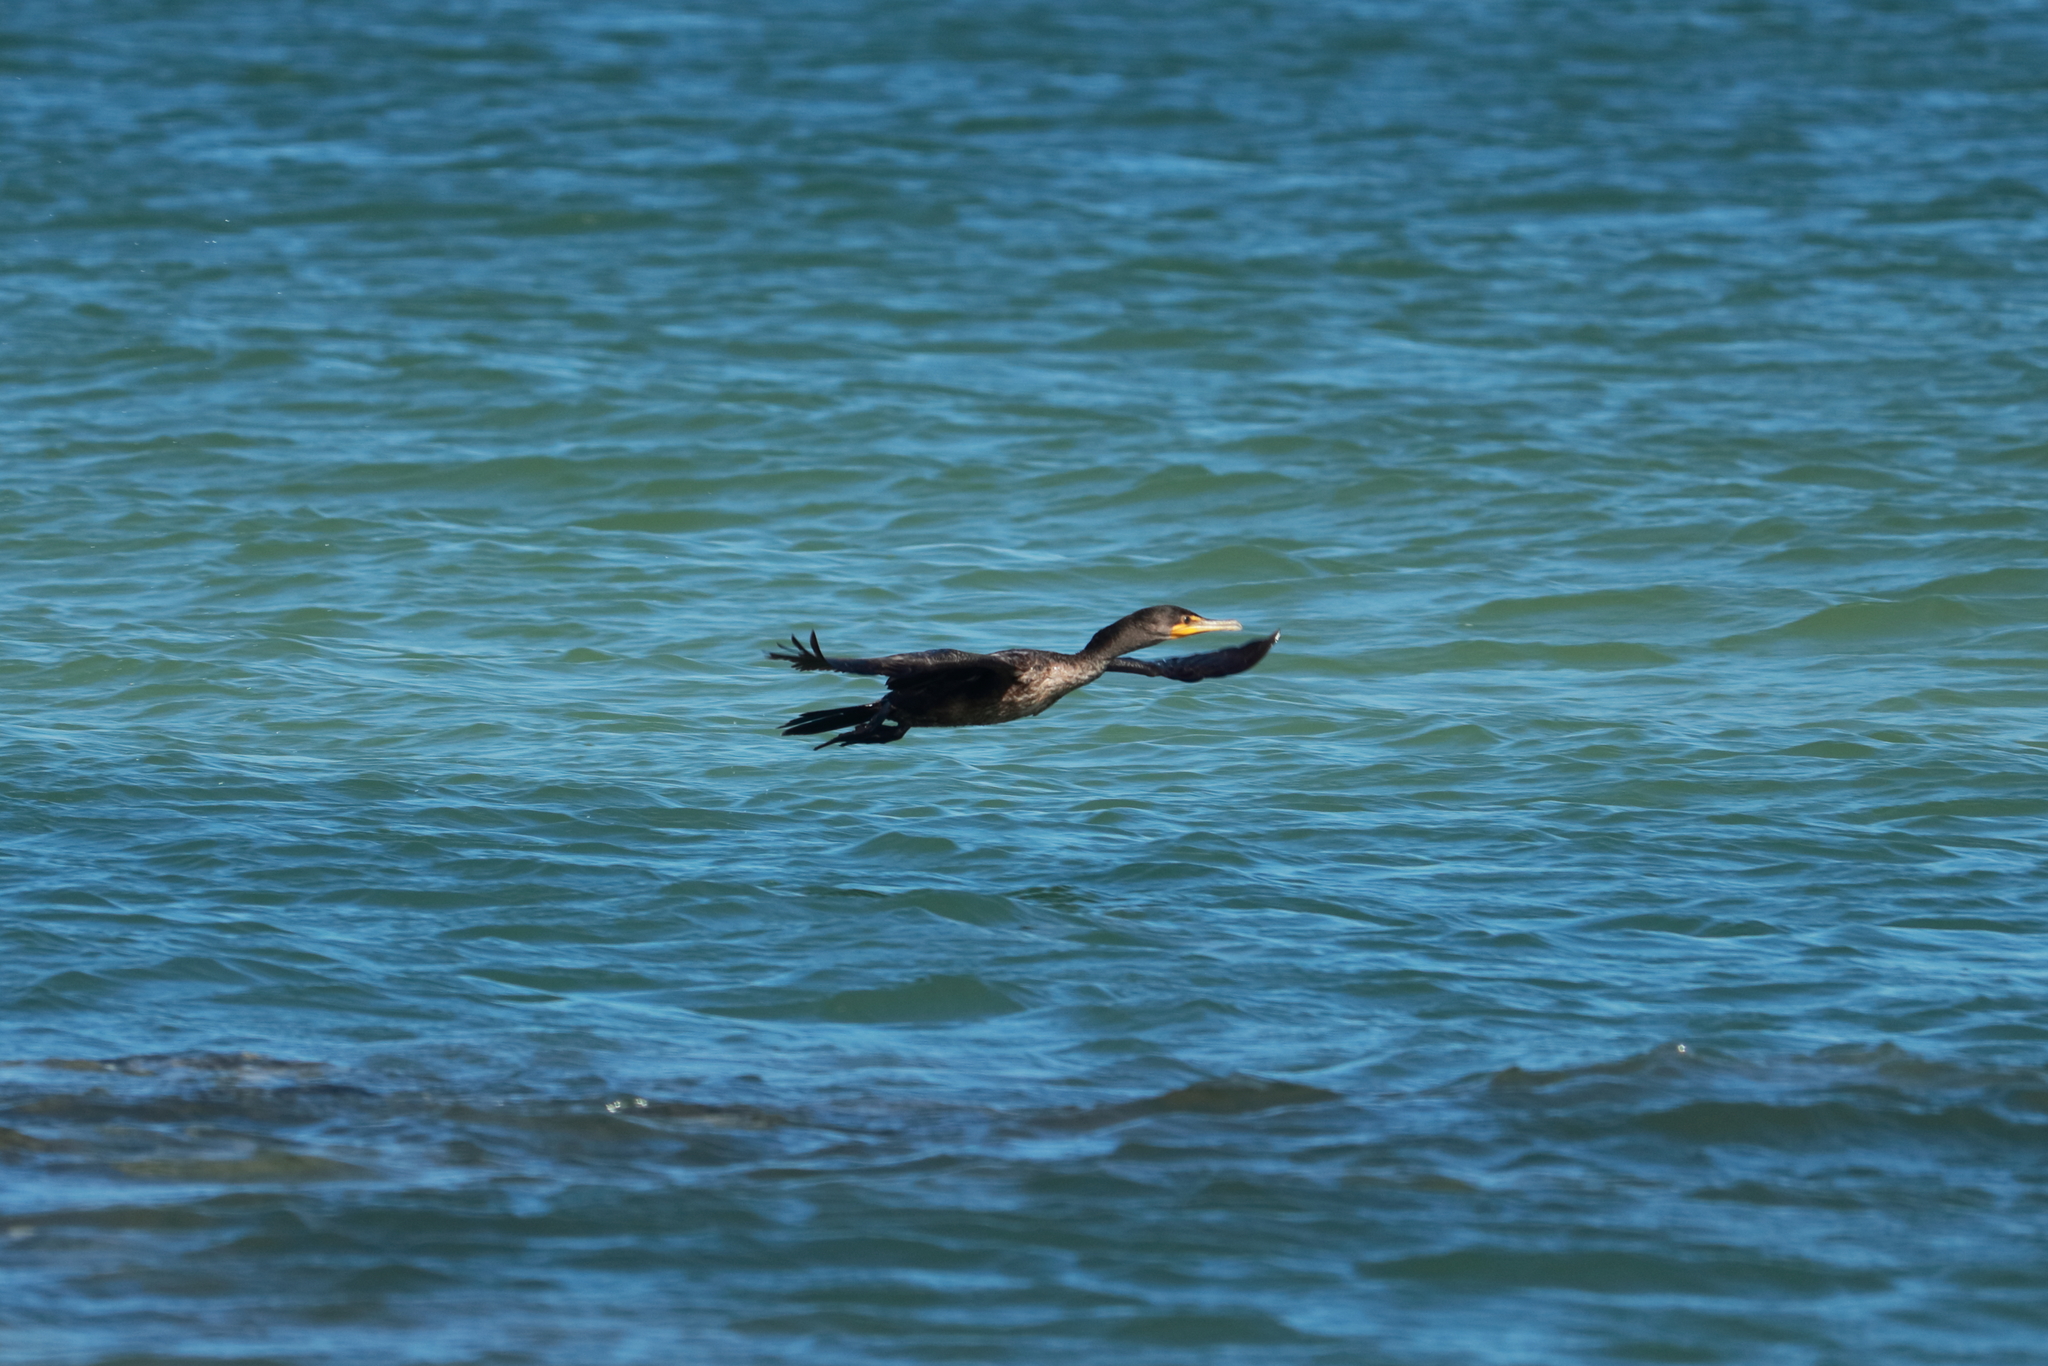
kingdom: Animalia
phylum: Chordata
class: Aves
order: Suliformes
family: Phalacrocoracidae
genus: Phalacrocorax
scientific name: Phalacrocorax auritus
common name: Double-crested cormorant
